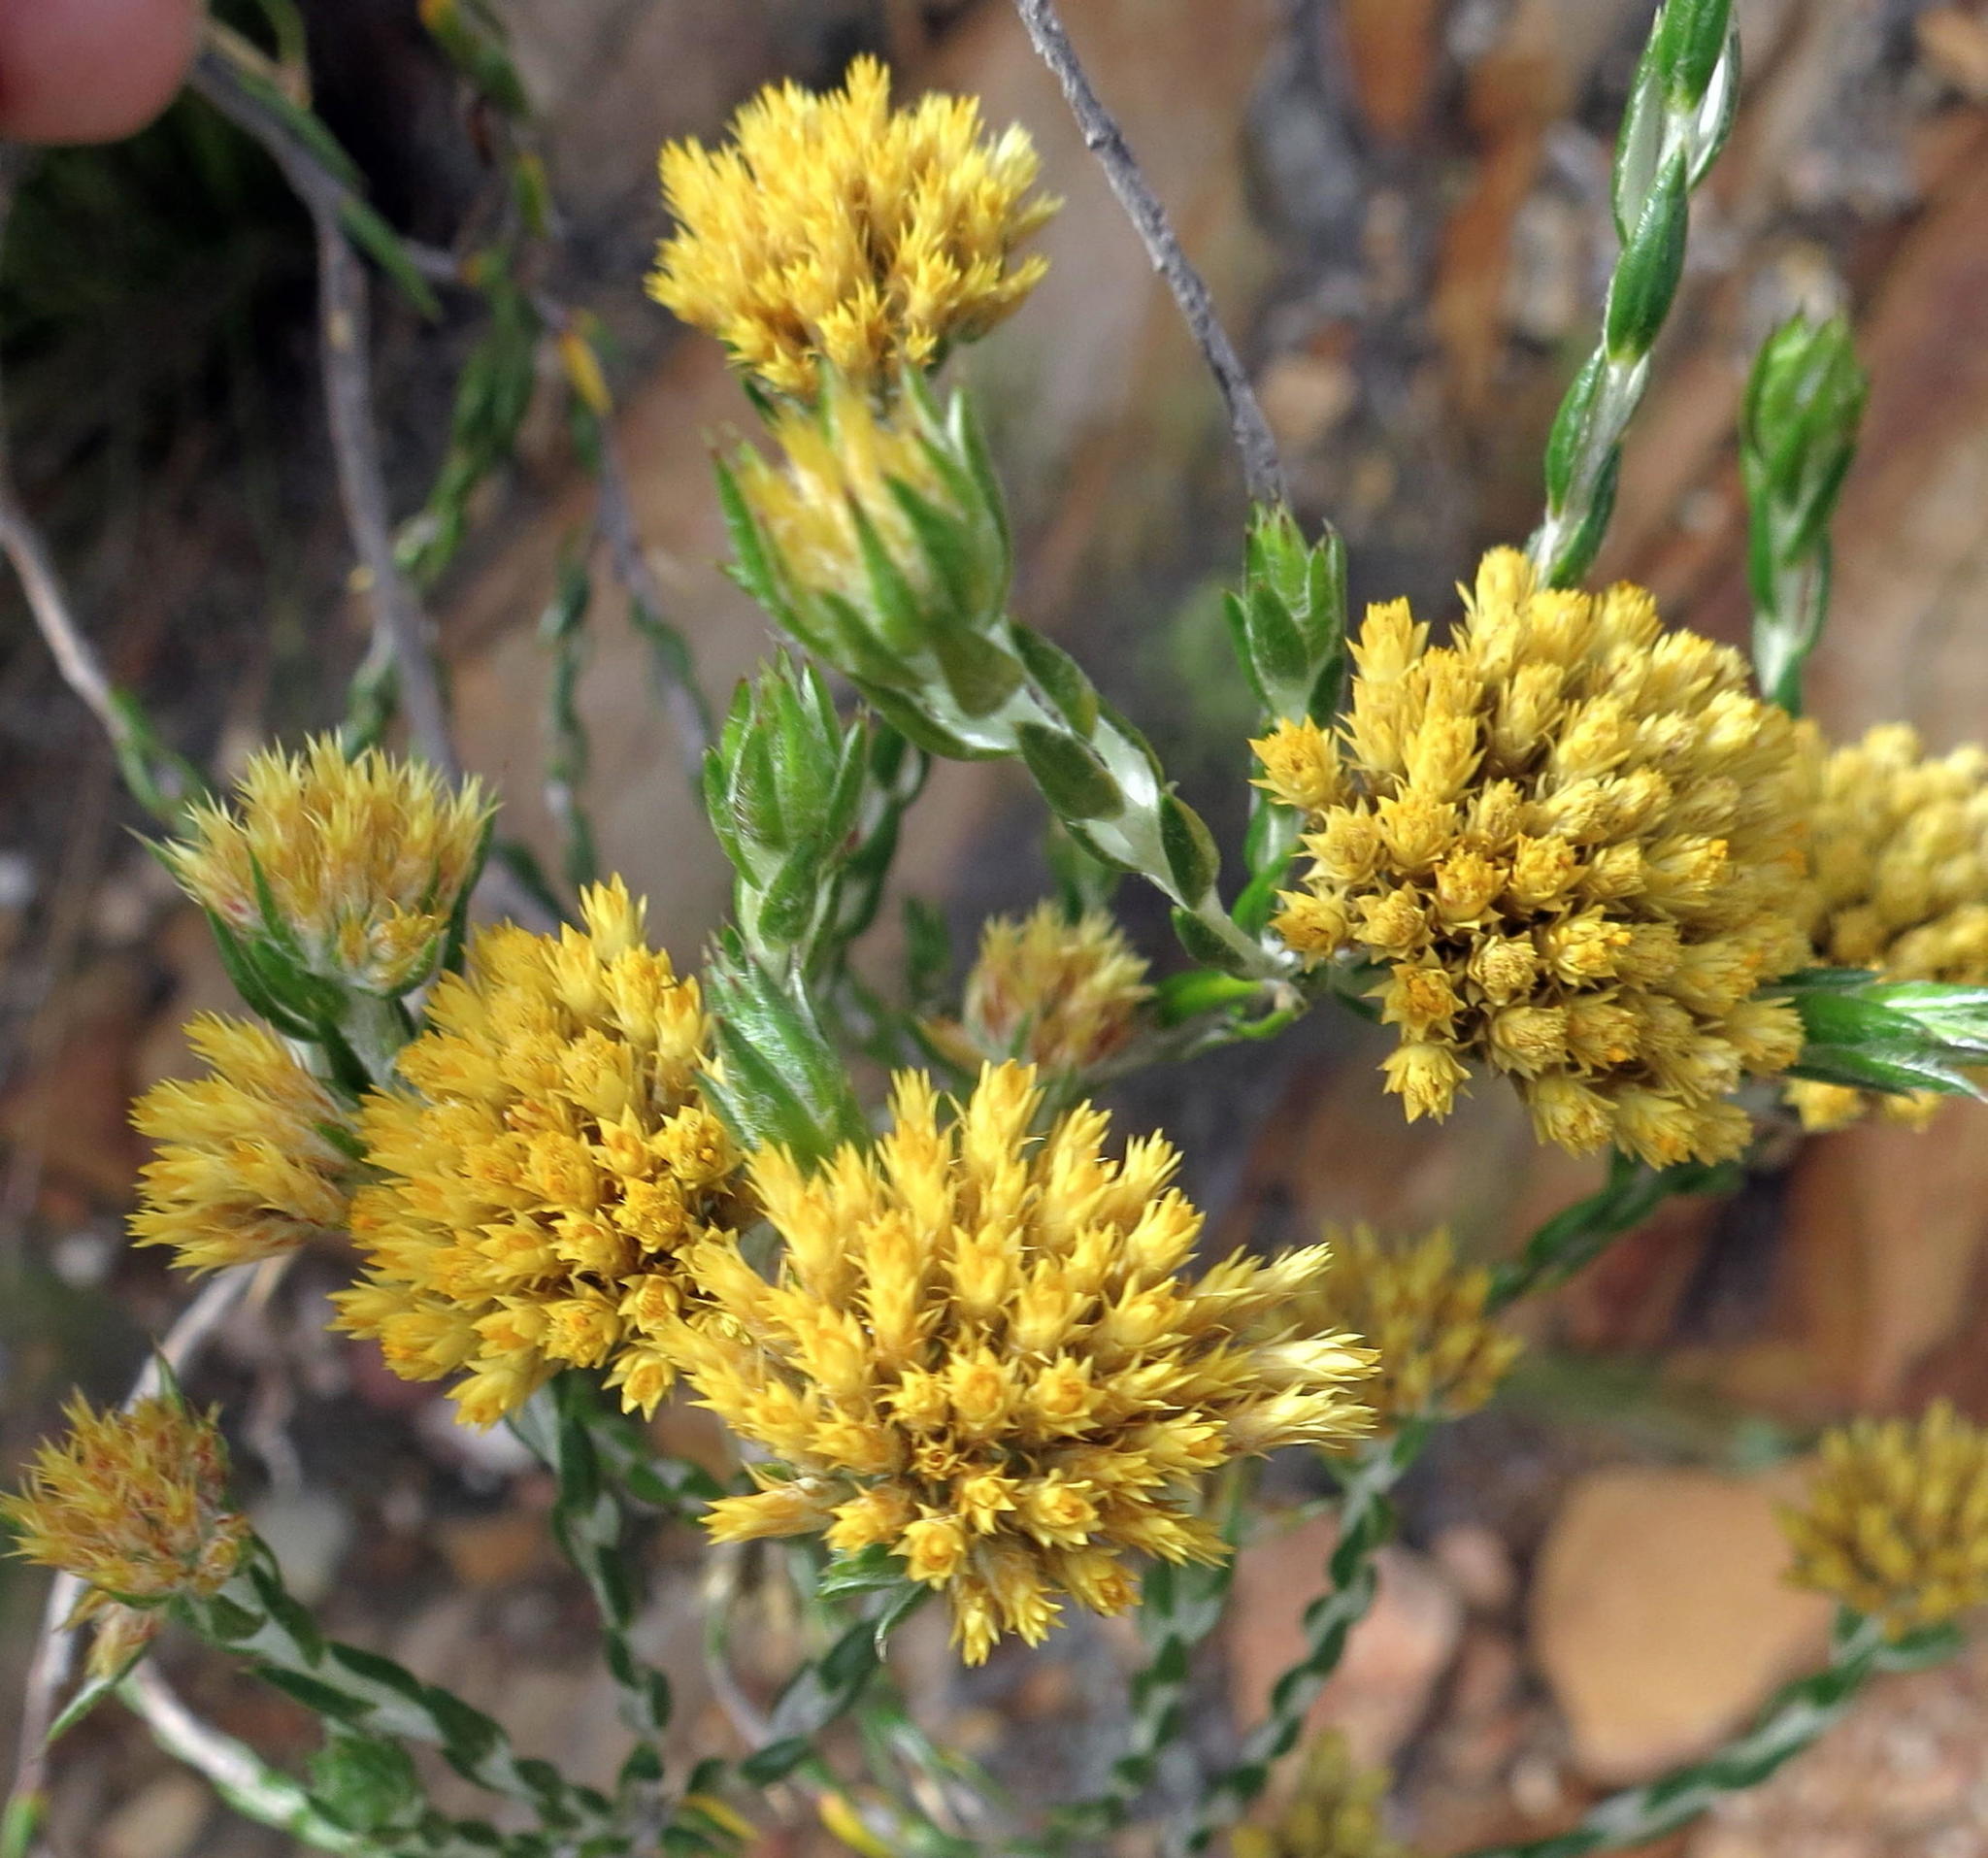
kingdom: Plantae
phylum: Tracheophyta
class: Magnoliopsida
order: Asterales
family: Asteraceae
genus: Metalasia
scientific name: Metalasia pulcherrima
